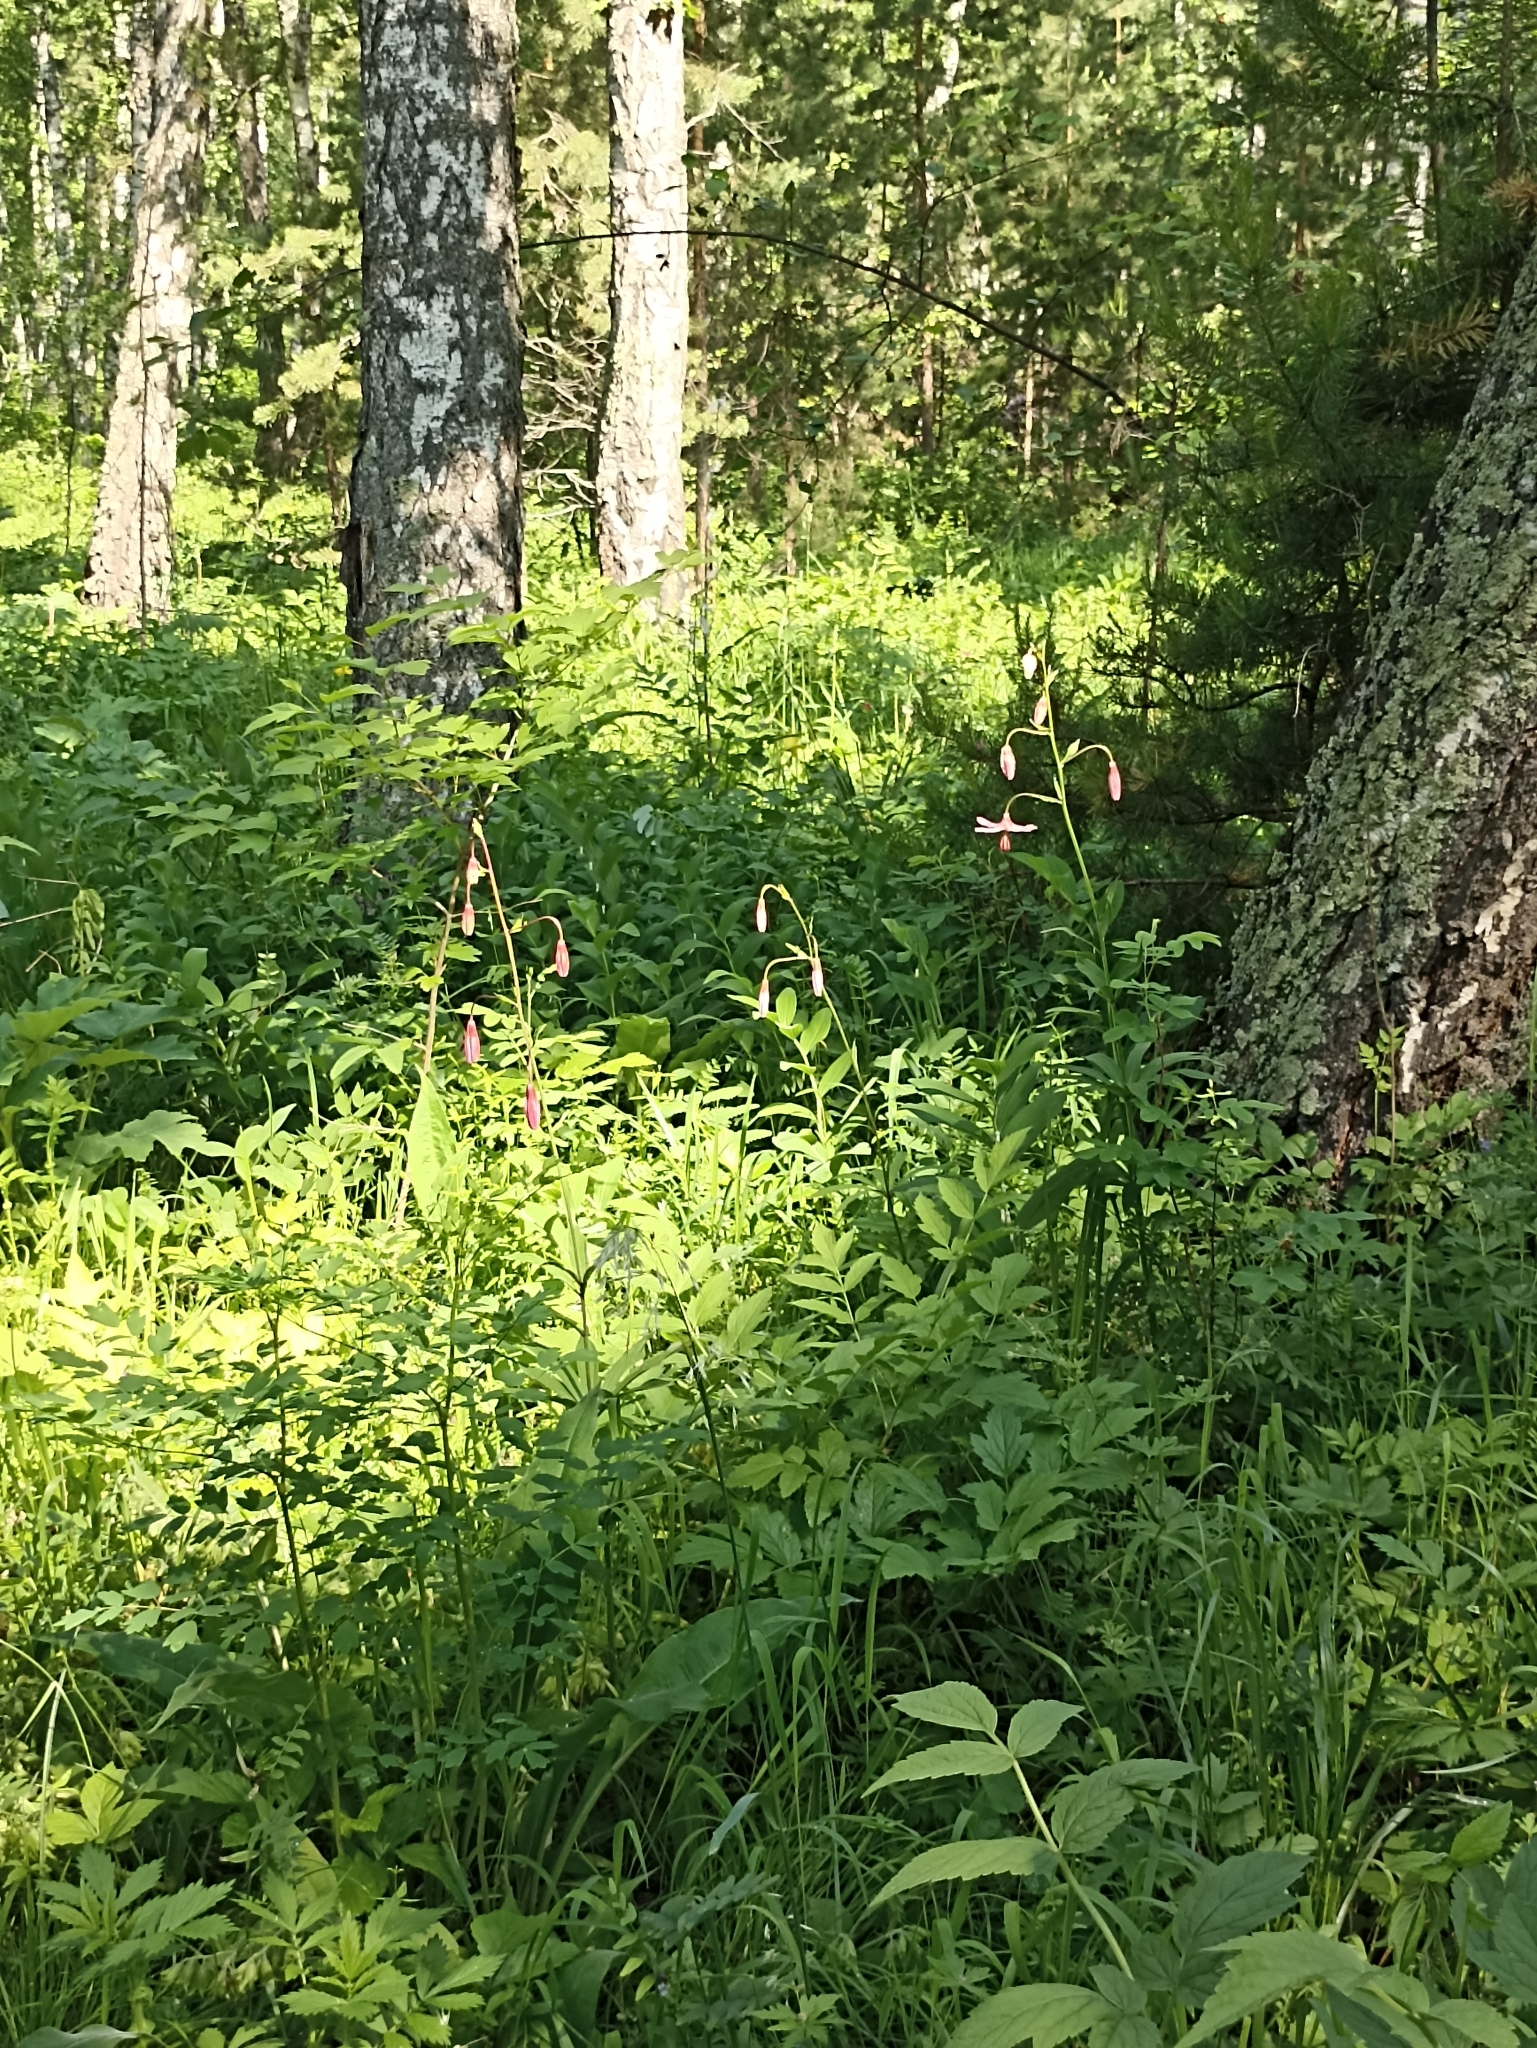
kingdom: Plantae
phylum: Tracheophyta
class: Liliopsida
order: Liliales
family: Liliaceae
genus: Lilium
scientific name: Lilium martagon
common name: Martagon lily
